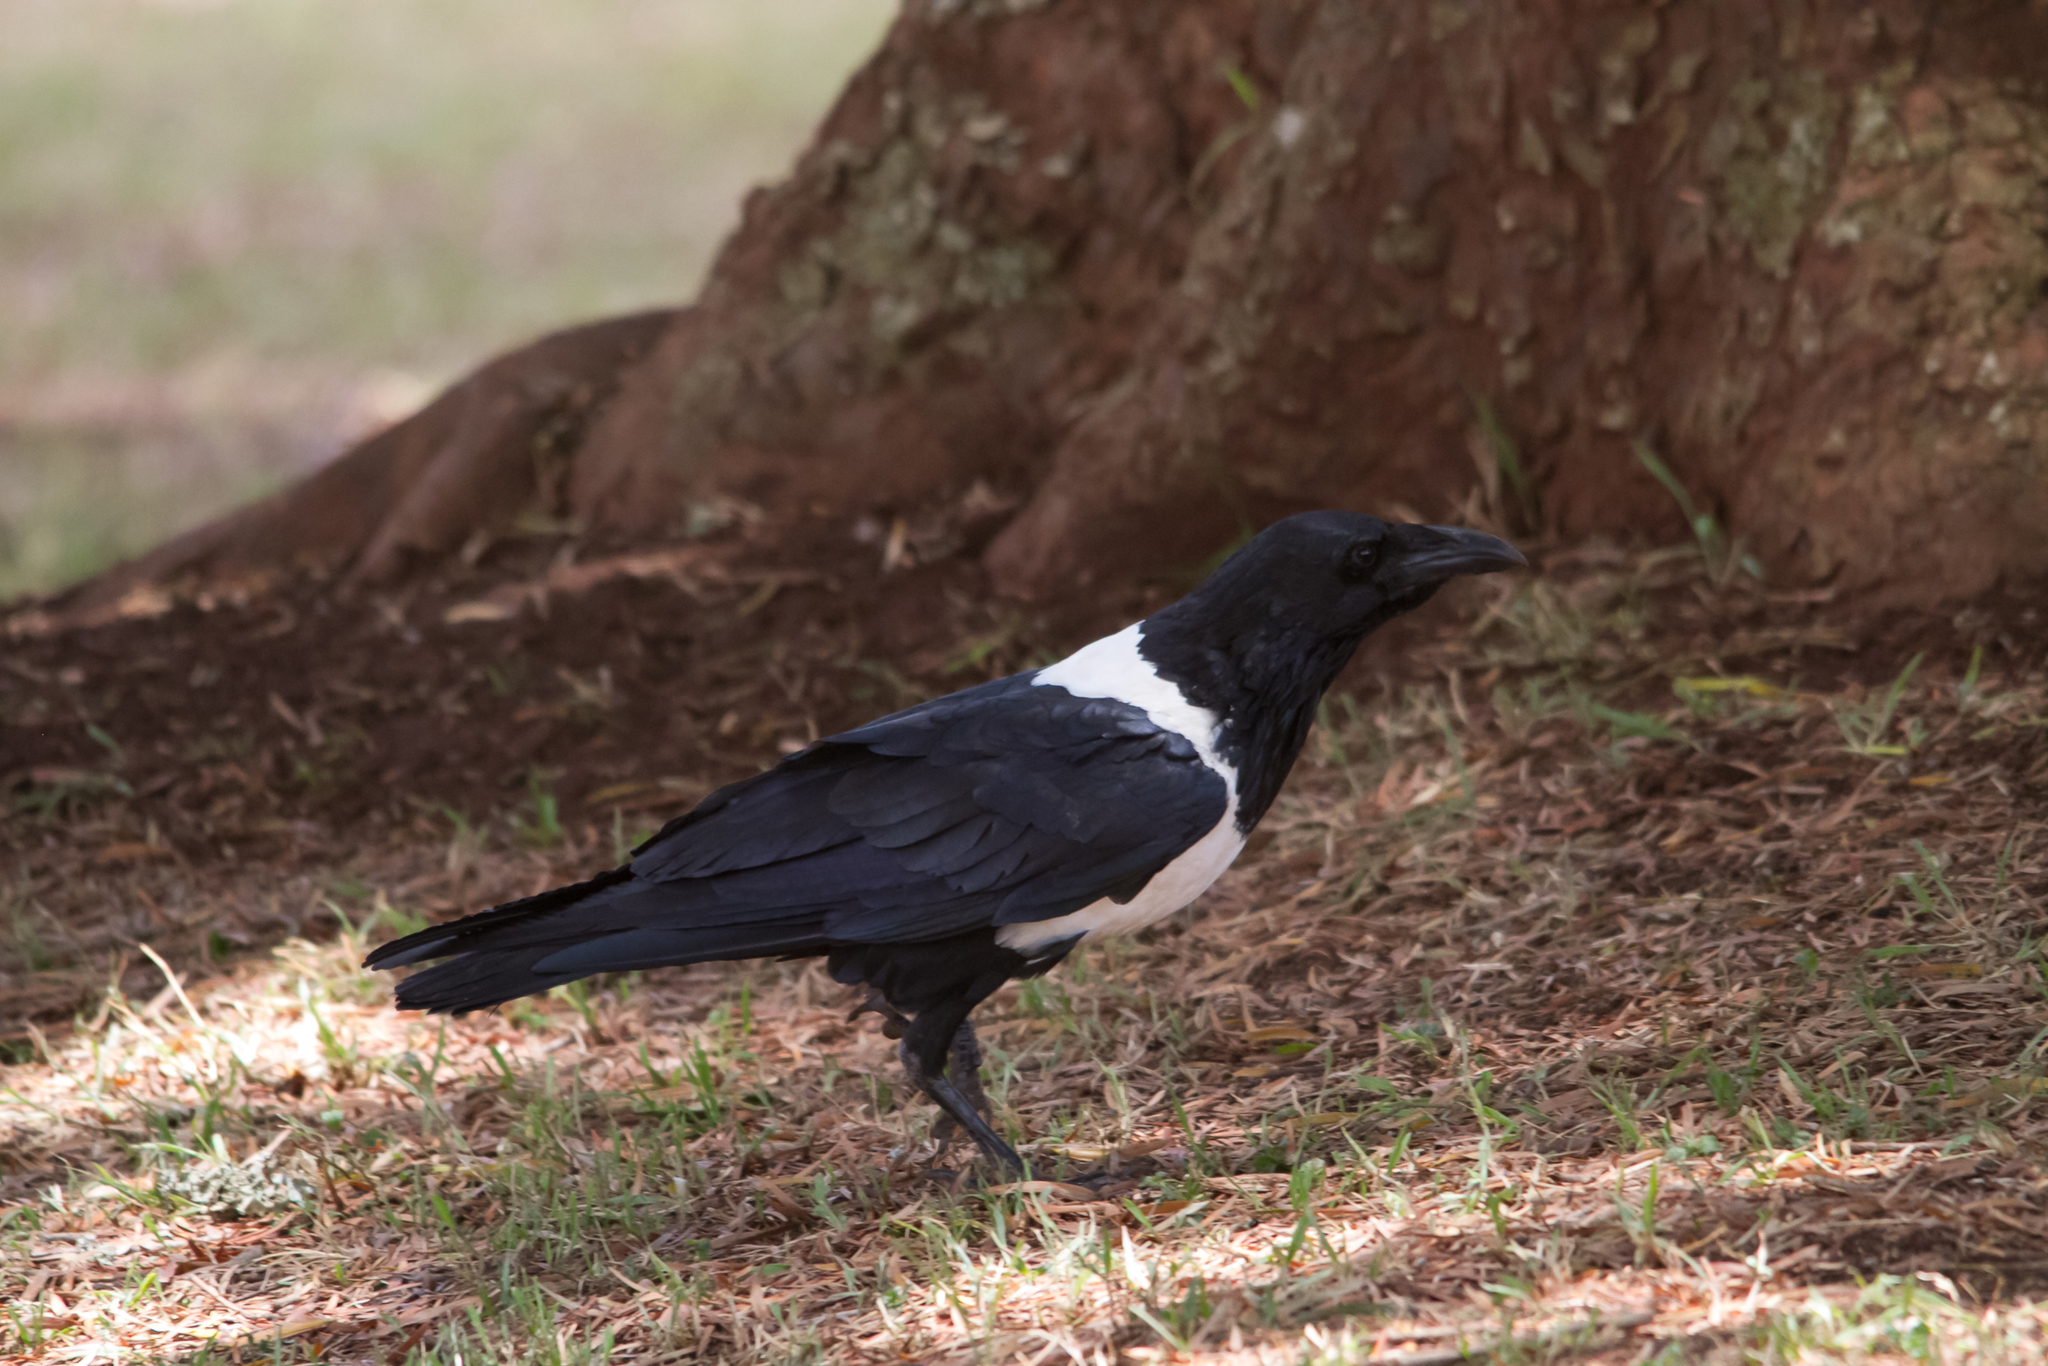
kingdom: Animalia
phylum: Chordata
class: Aves
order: Passeriformes
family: Corvidae
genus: Corvus
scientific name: Corvus albus
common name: Pied crow
